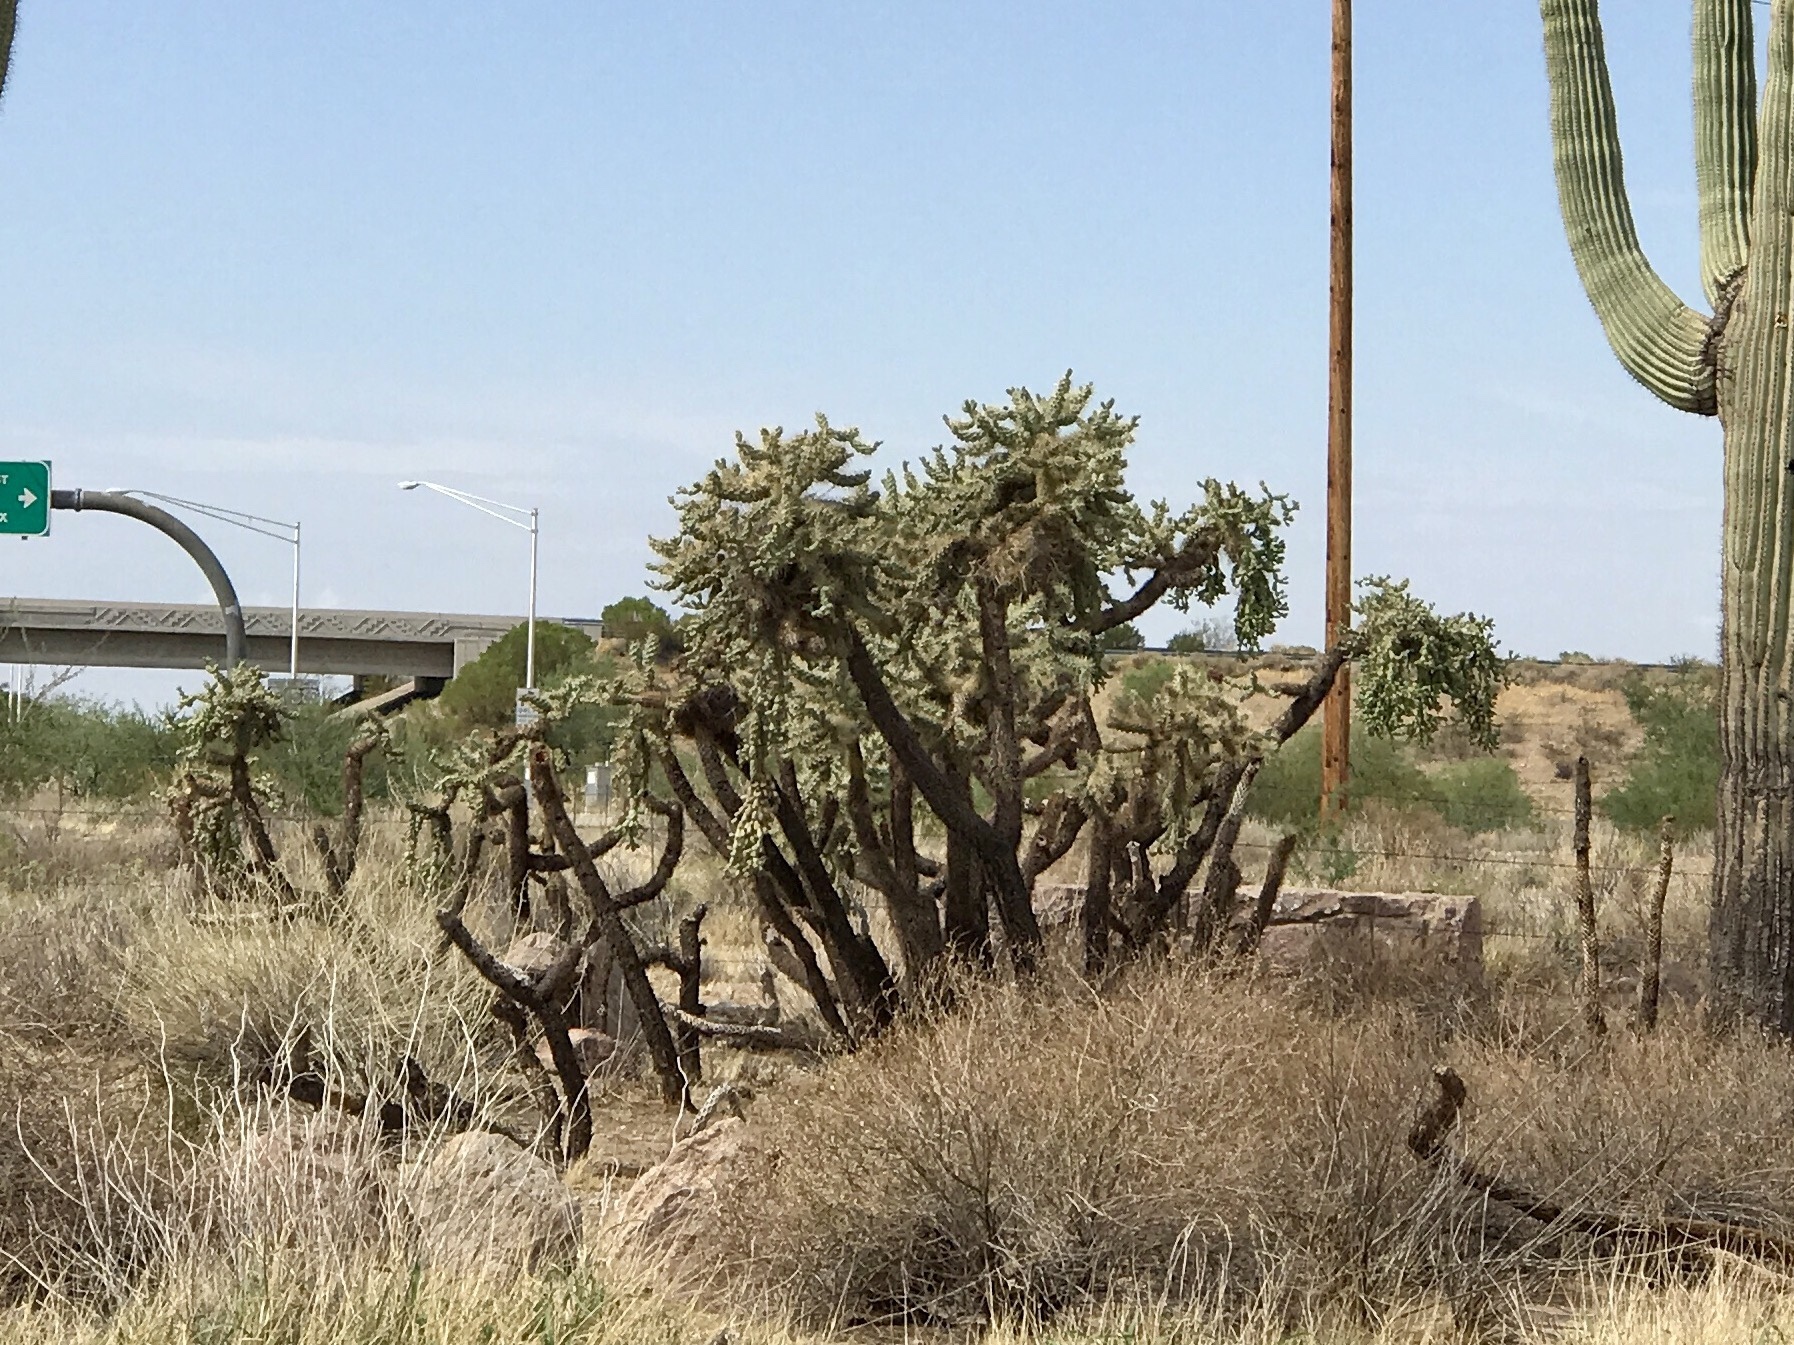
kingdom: Plantae
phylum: Tracheophyta
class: Magnoliopsida
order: Caryophyllales
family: Cactaceae
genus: Cylindropuntia
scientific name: Cylindropuntia fulgida
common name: Jumping cholla
